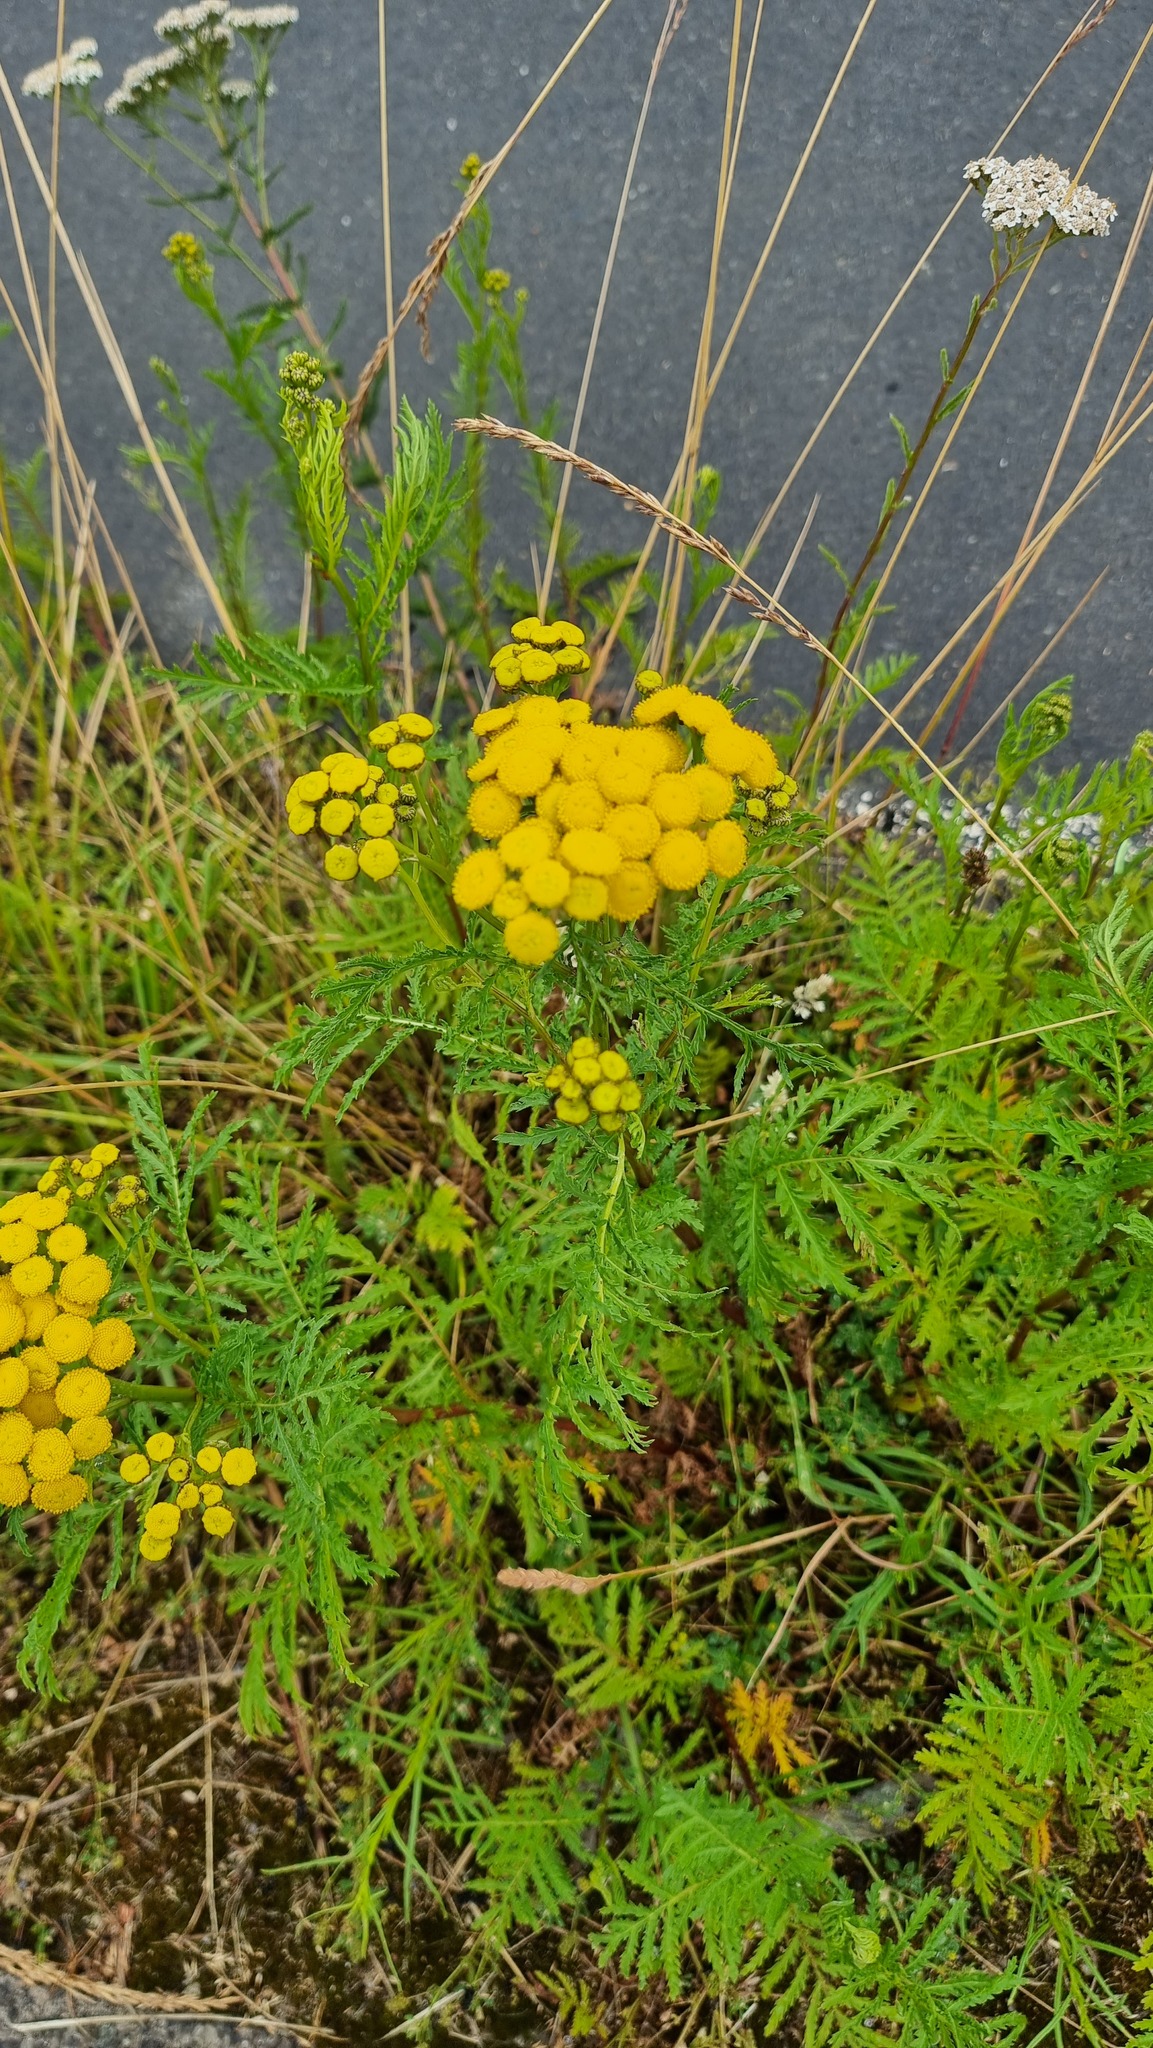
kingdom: Plantae
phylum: Tracheophyta
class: Magnoliopsida
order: Asterales
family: Asteraceae
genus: Tanacetum
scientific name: Tanacetum vulgare
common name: Common tansy
